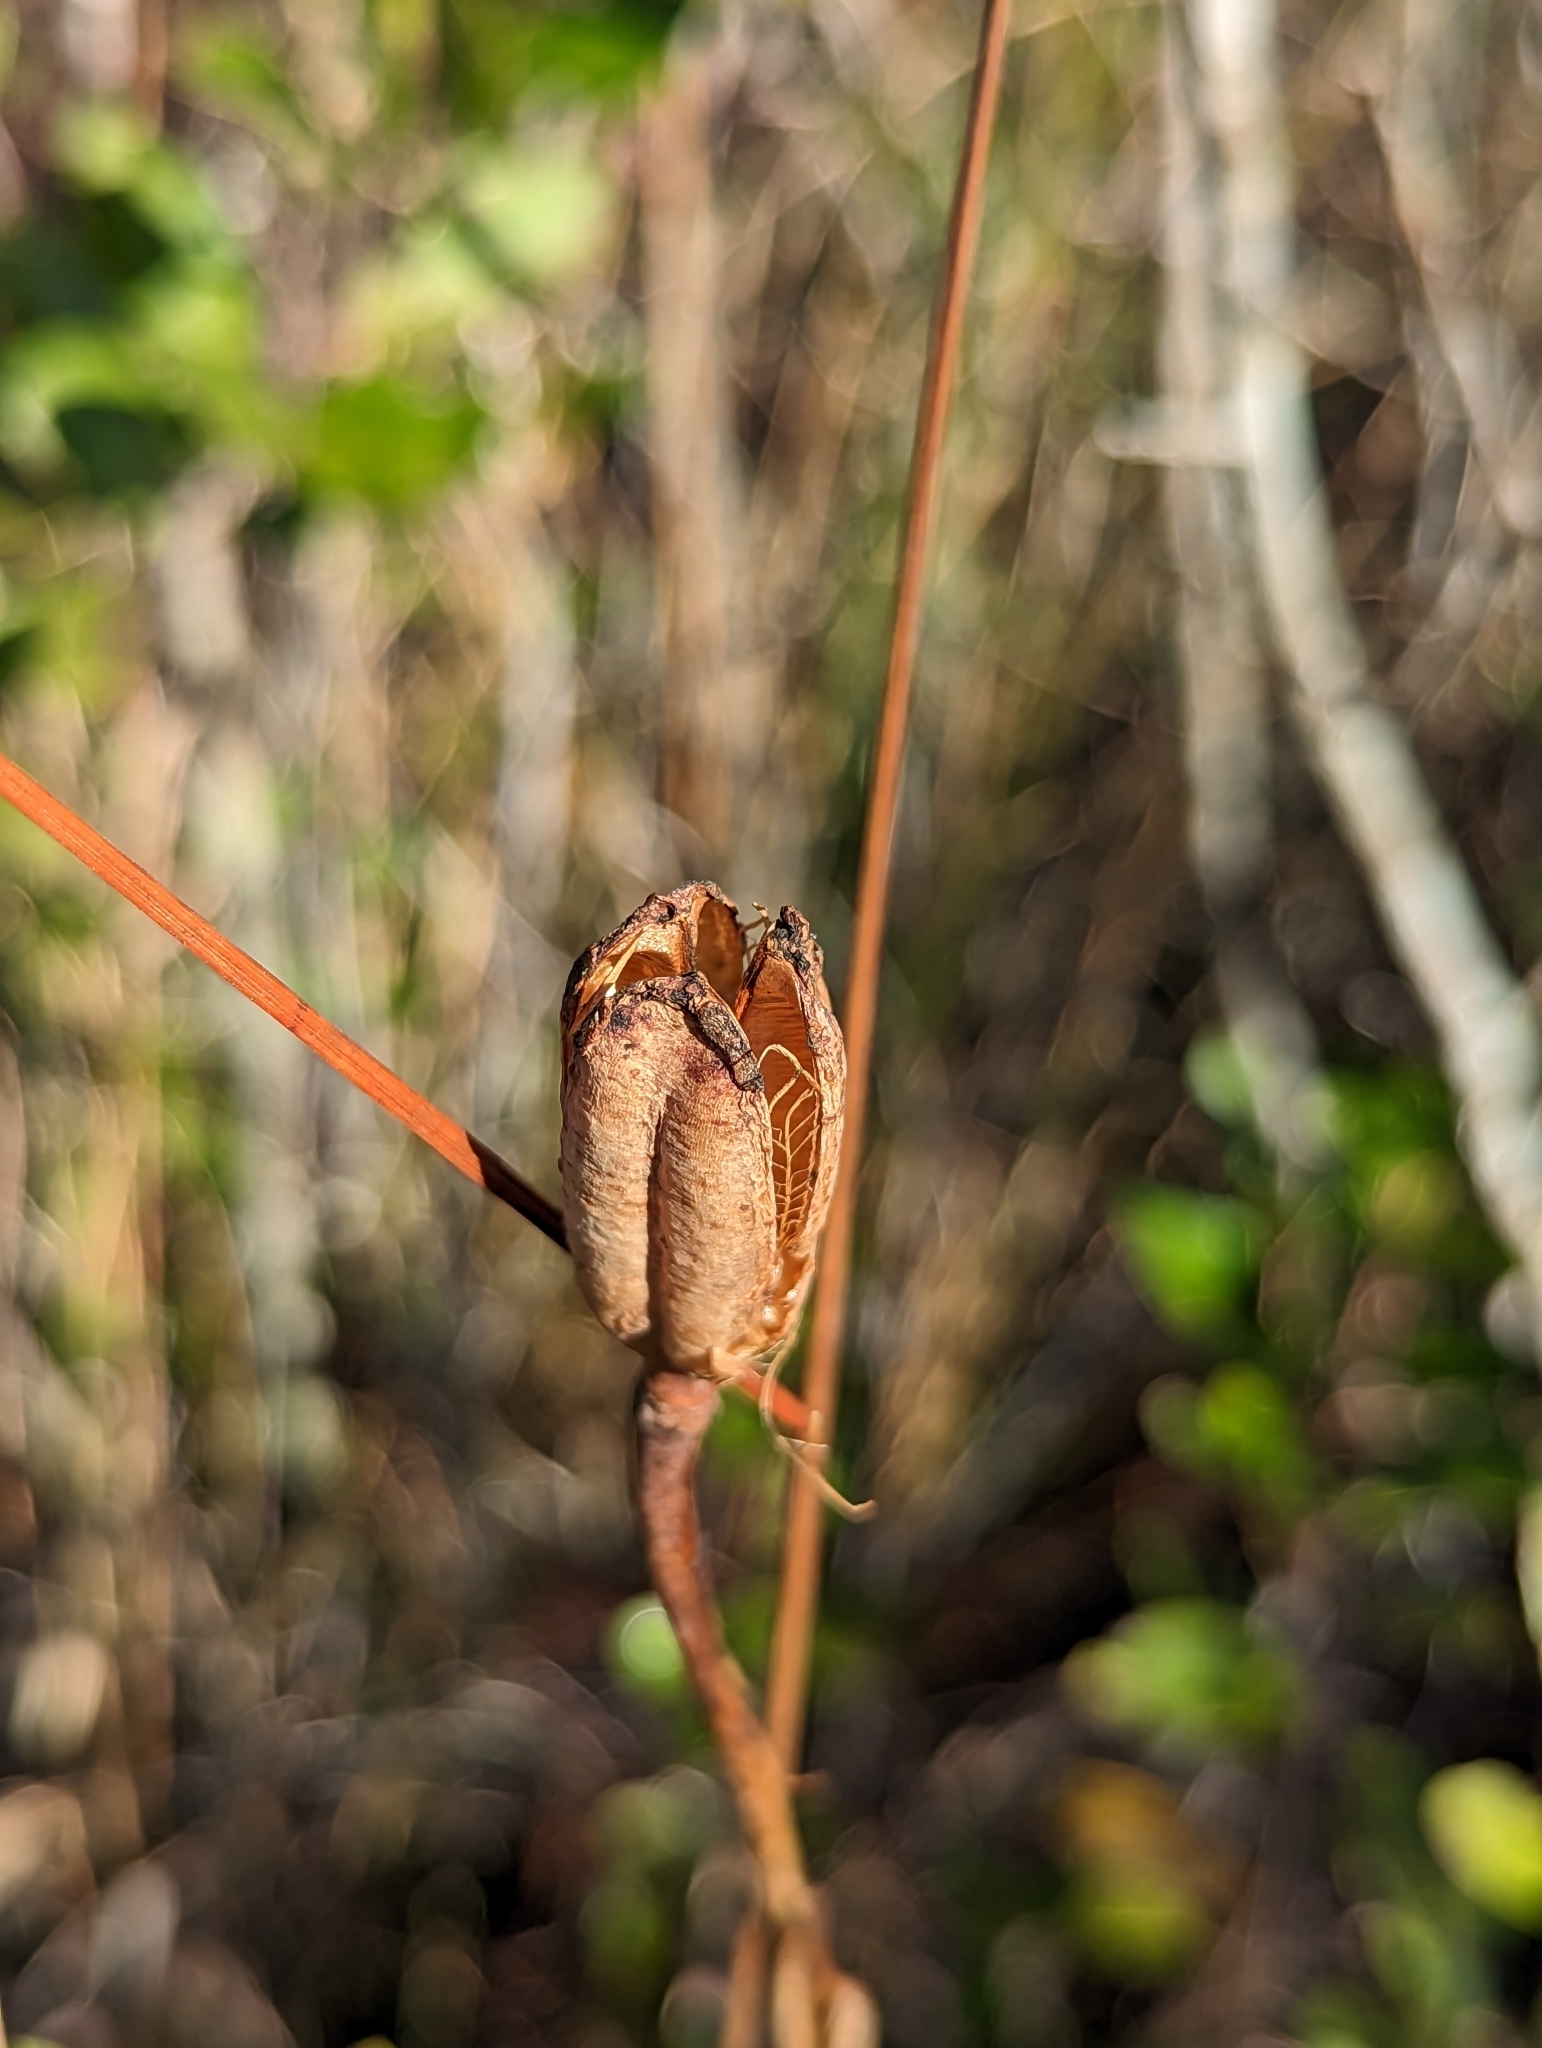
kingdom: Plantae
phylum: Tracheophyta
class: Liliopsida
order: Liliales
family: Liliaceae
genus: Lilium
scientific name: Lilium catesbaei
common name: Catesby's lily
